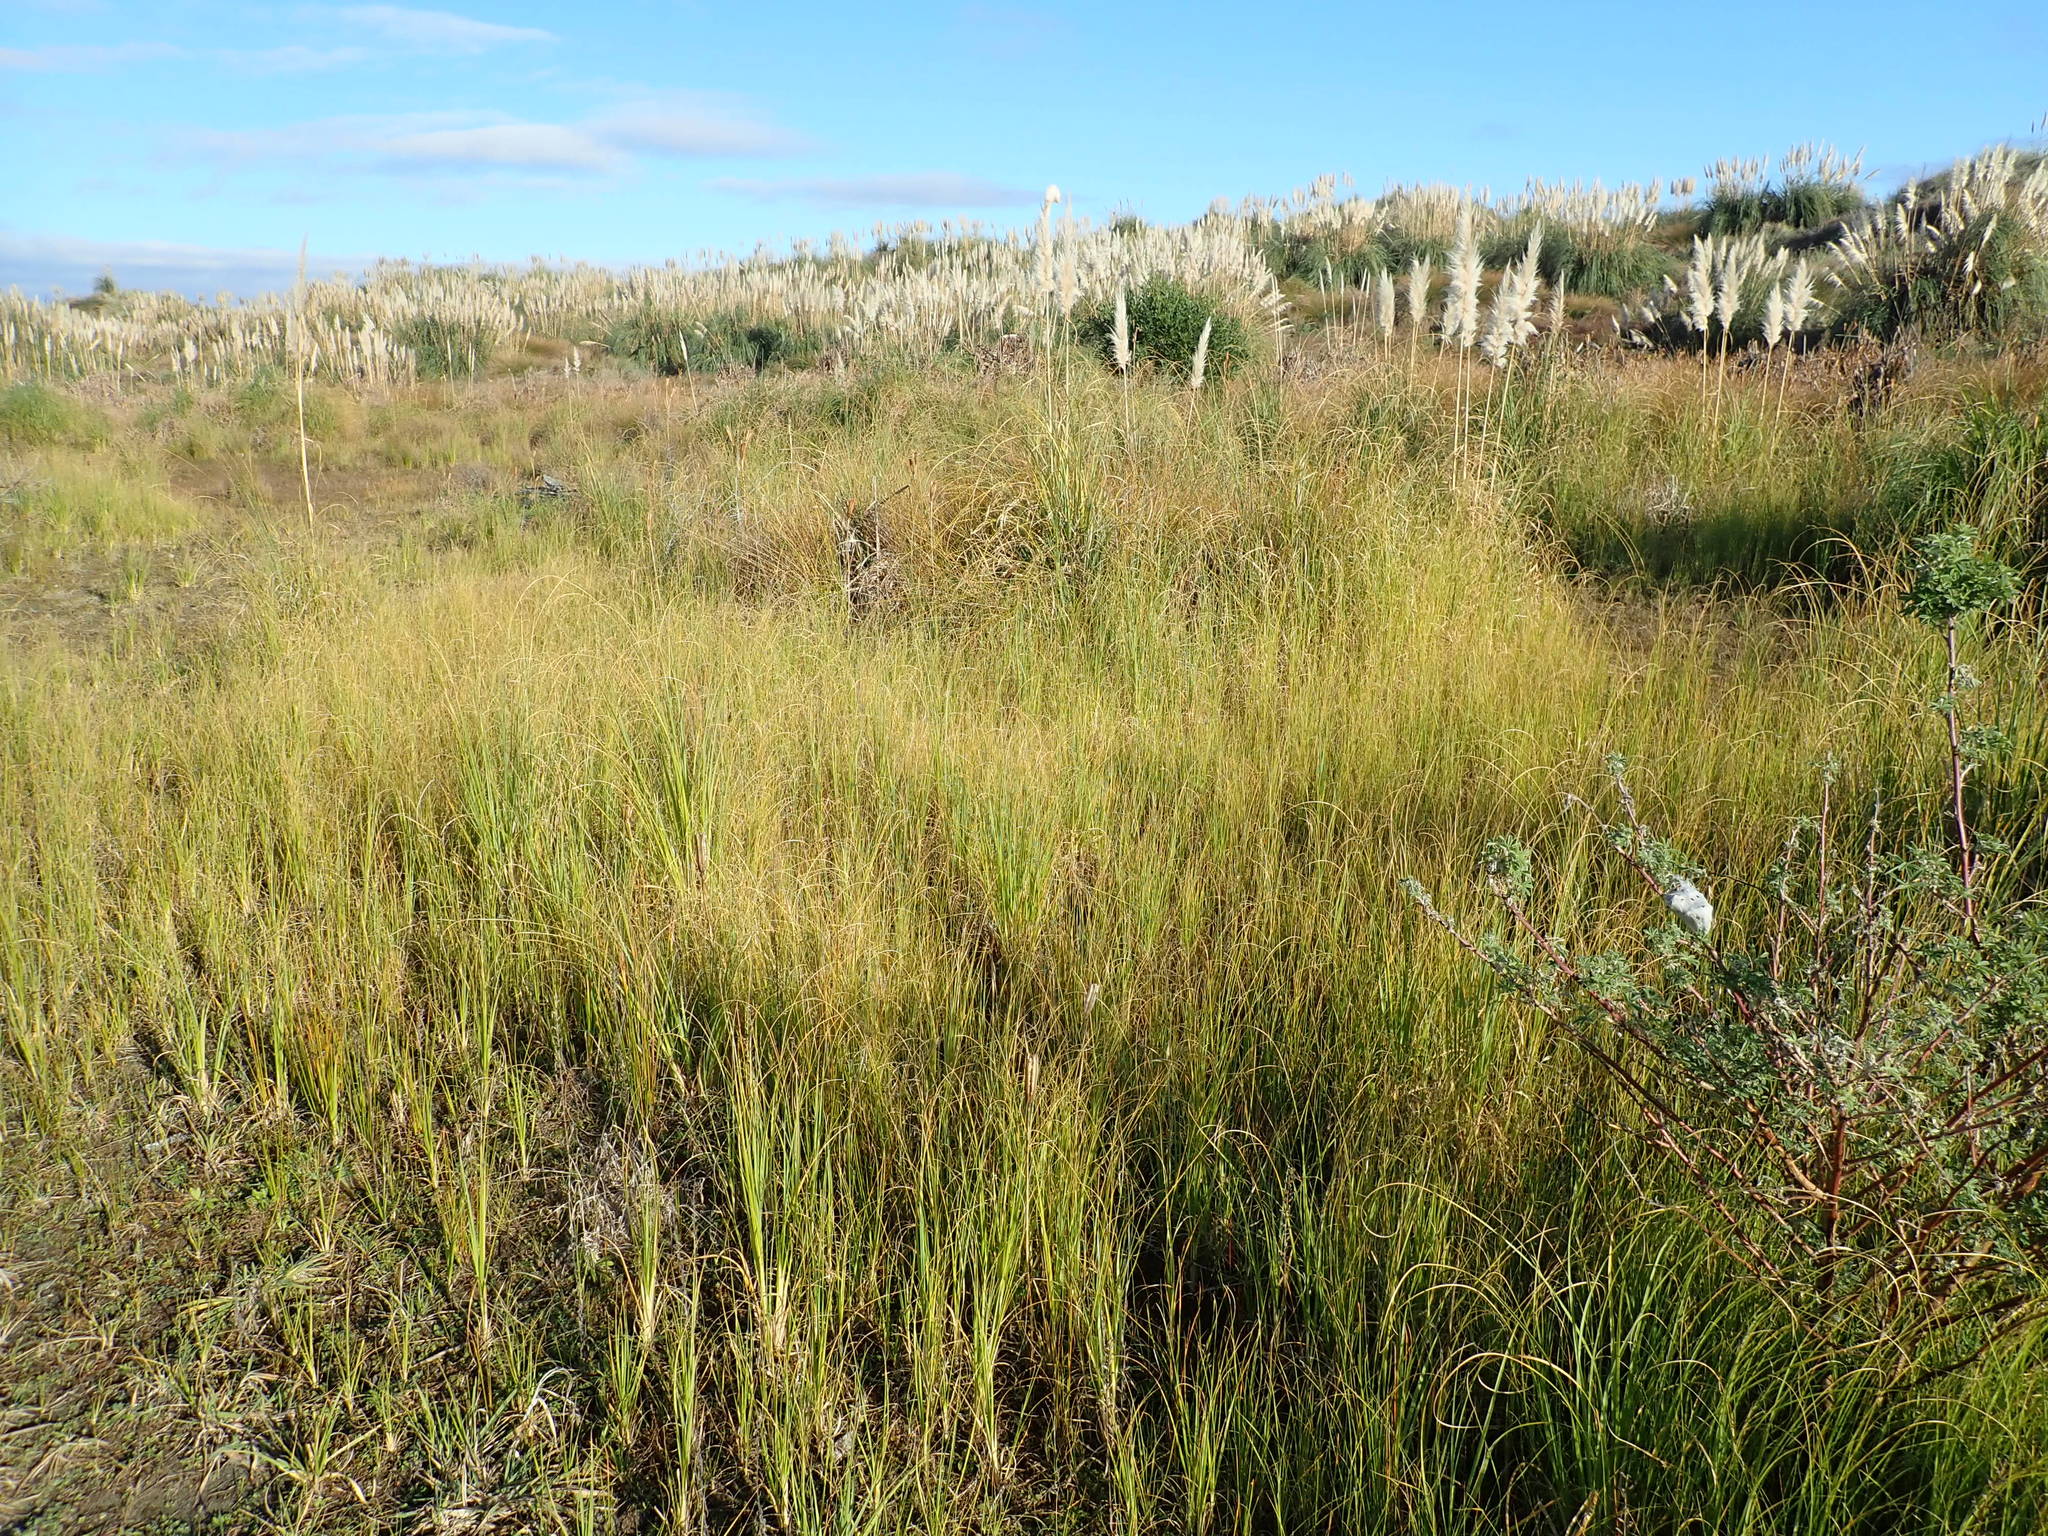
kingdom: Plantae
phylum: Tracheophyta
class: Liliopsida
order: Poales
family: Poaceae
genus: Cortaderia
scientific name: Cortaderia selloana
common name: Uruguayan pampas grass
